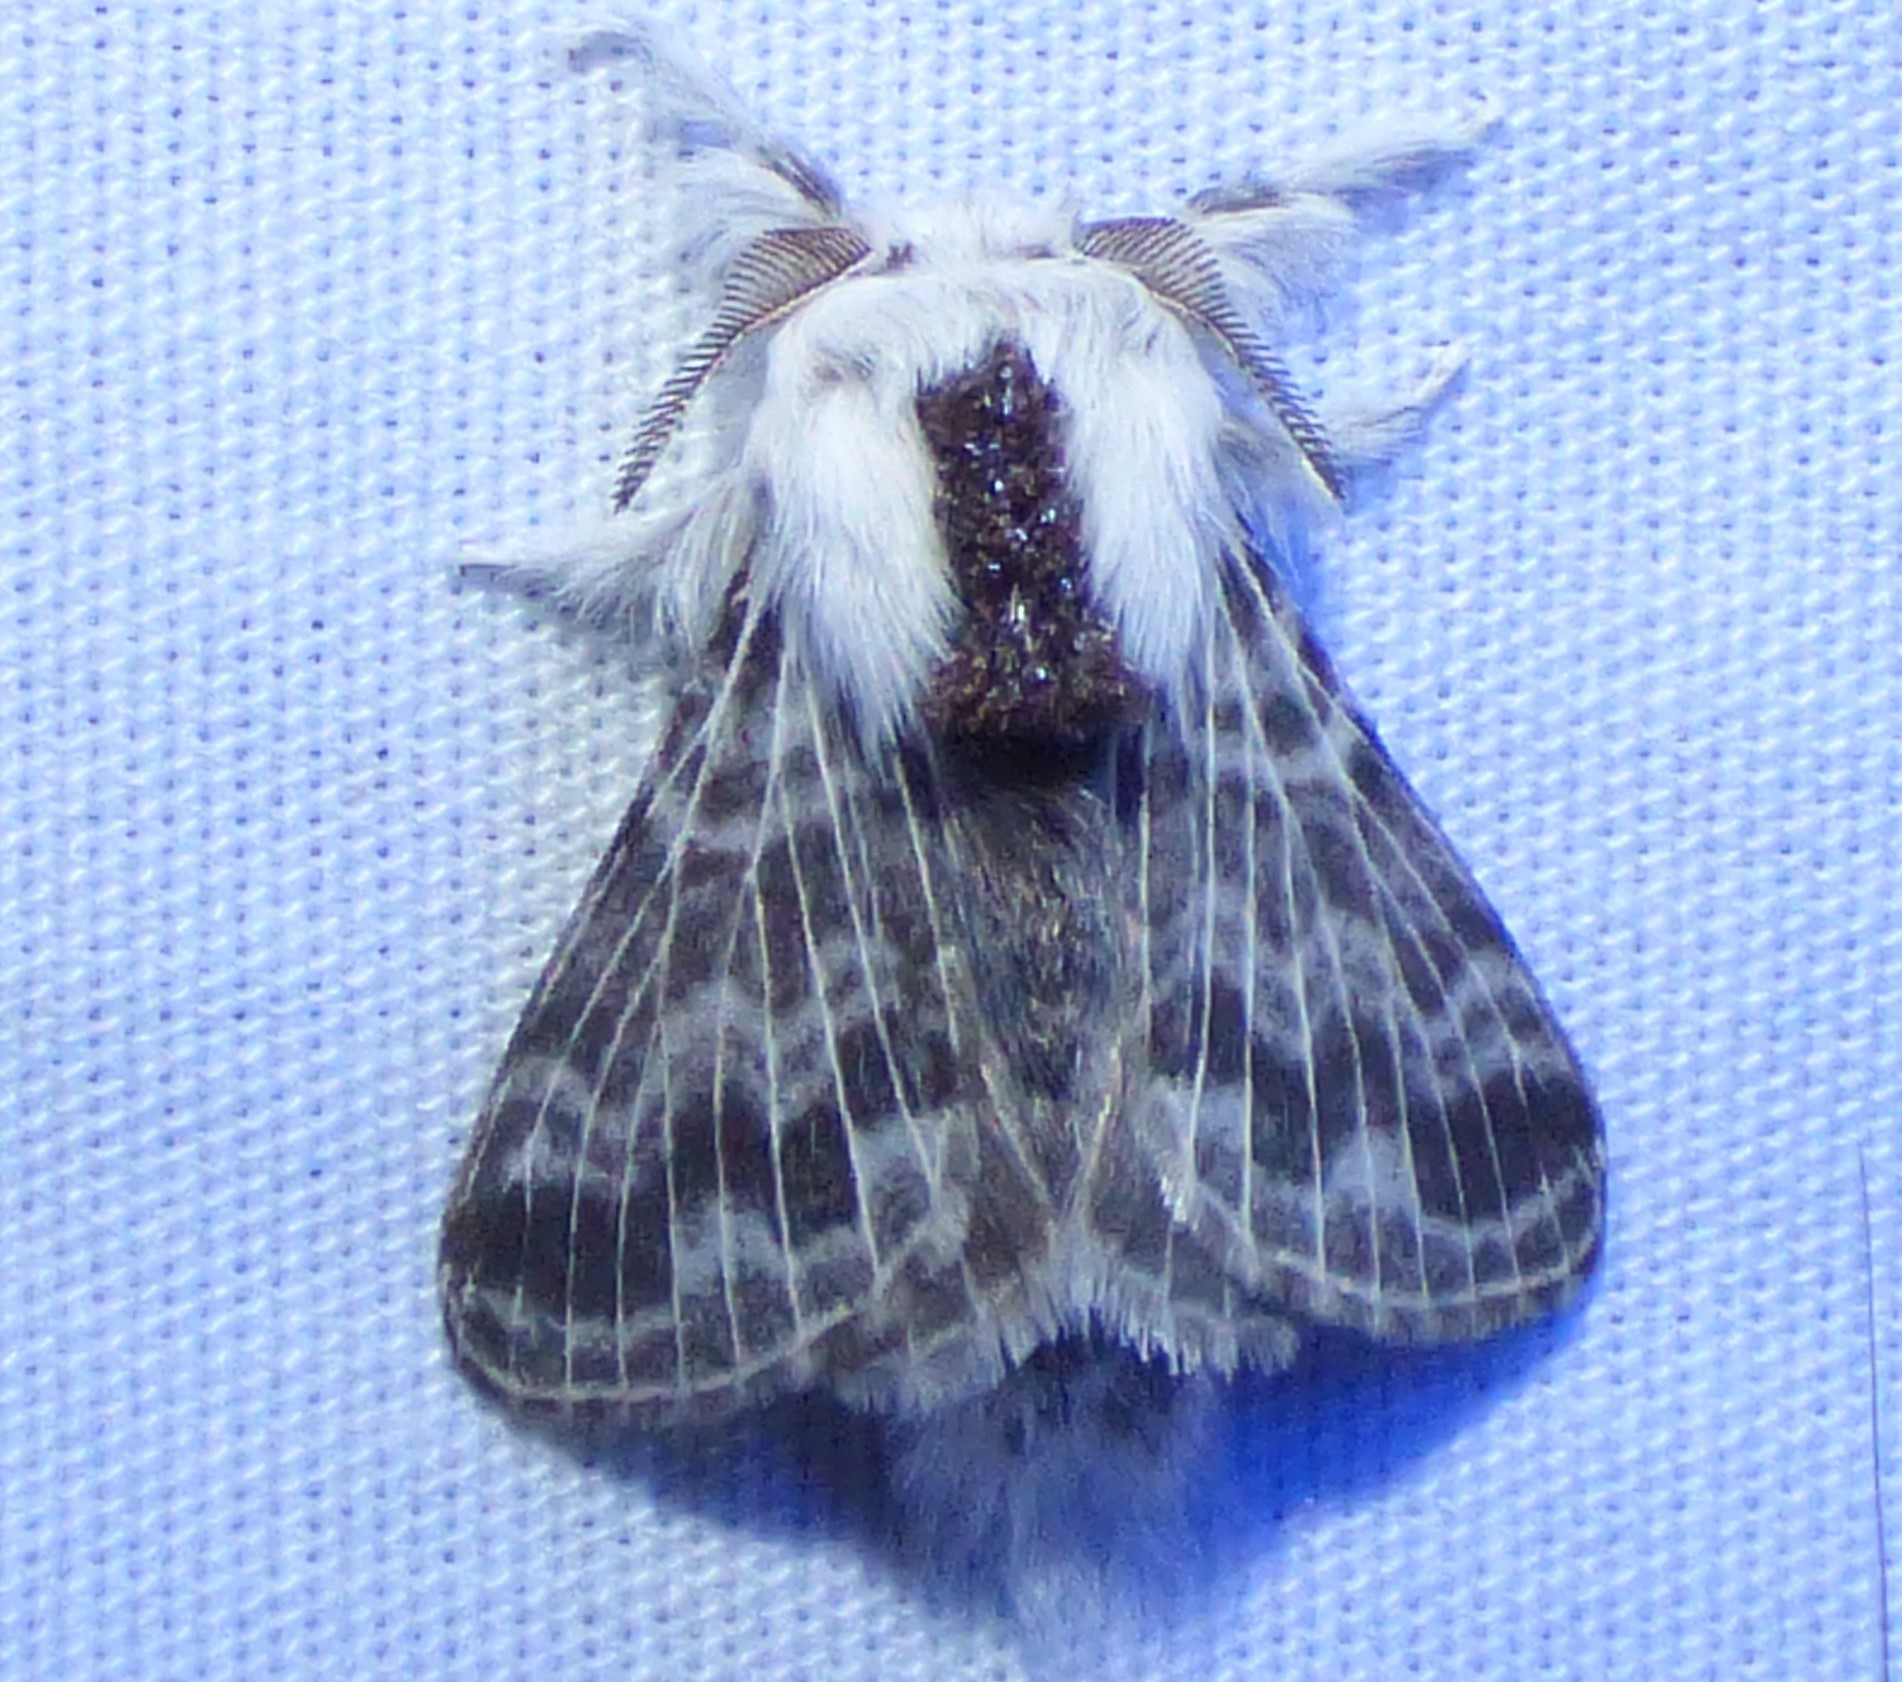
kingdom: Animalia
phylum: Arthropoda
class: Insecta
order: Lepidoptera
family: Lasiocampidae
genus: Tolype
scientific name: Tolype notialis
